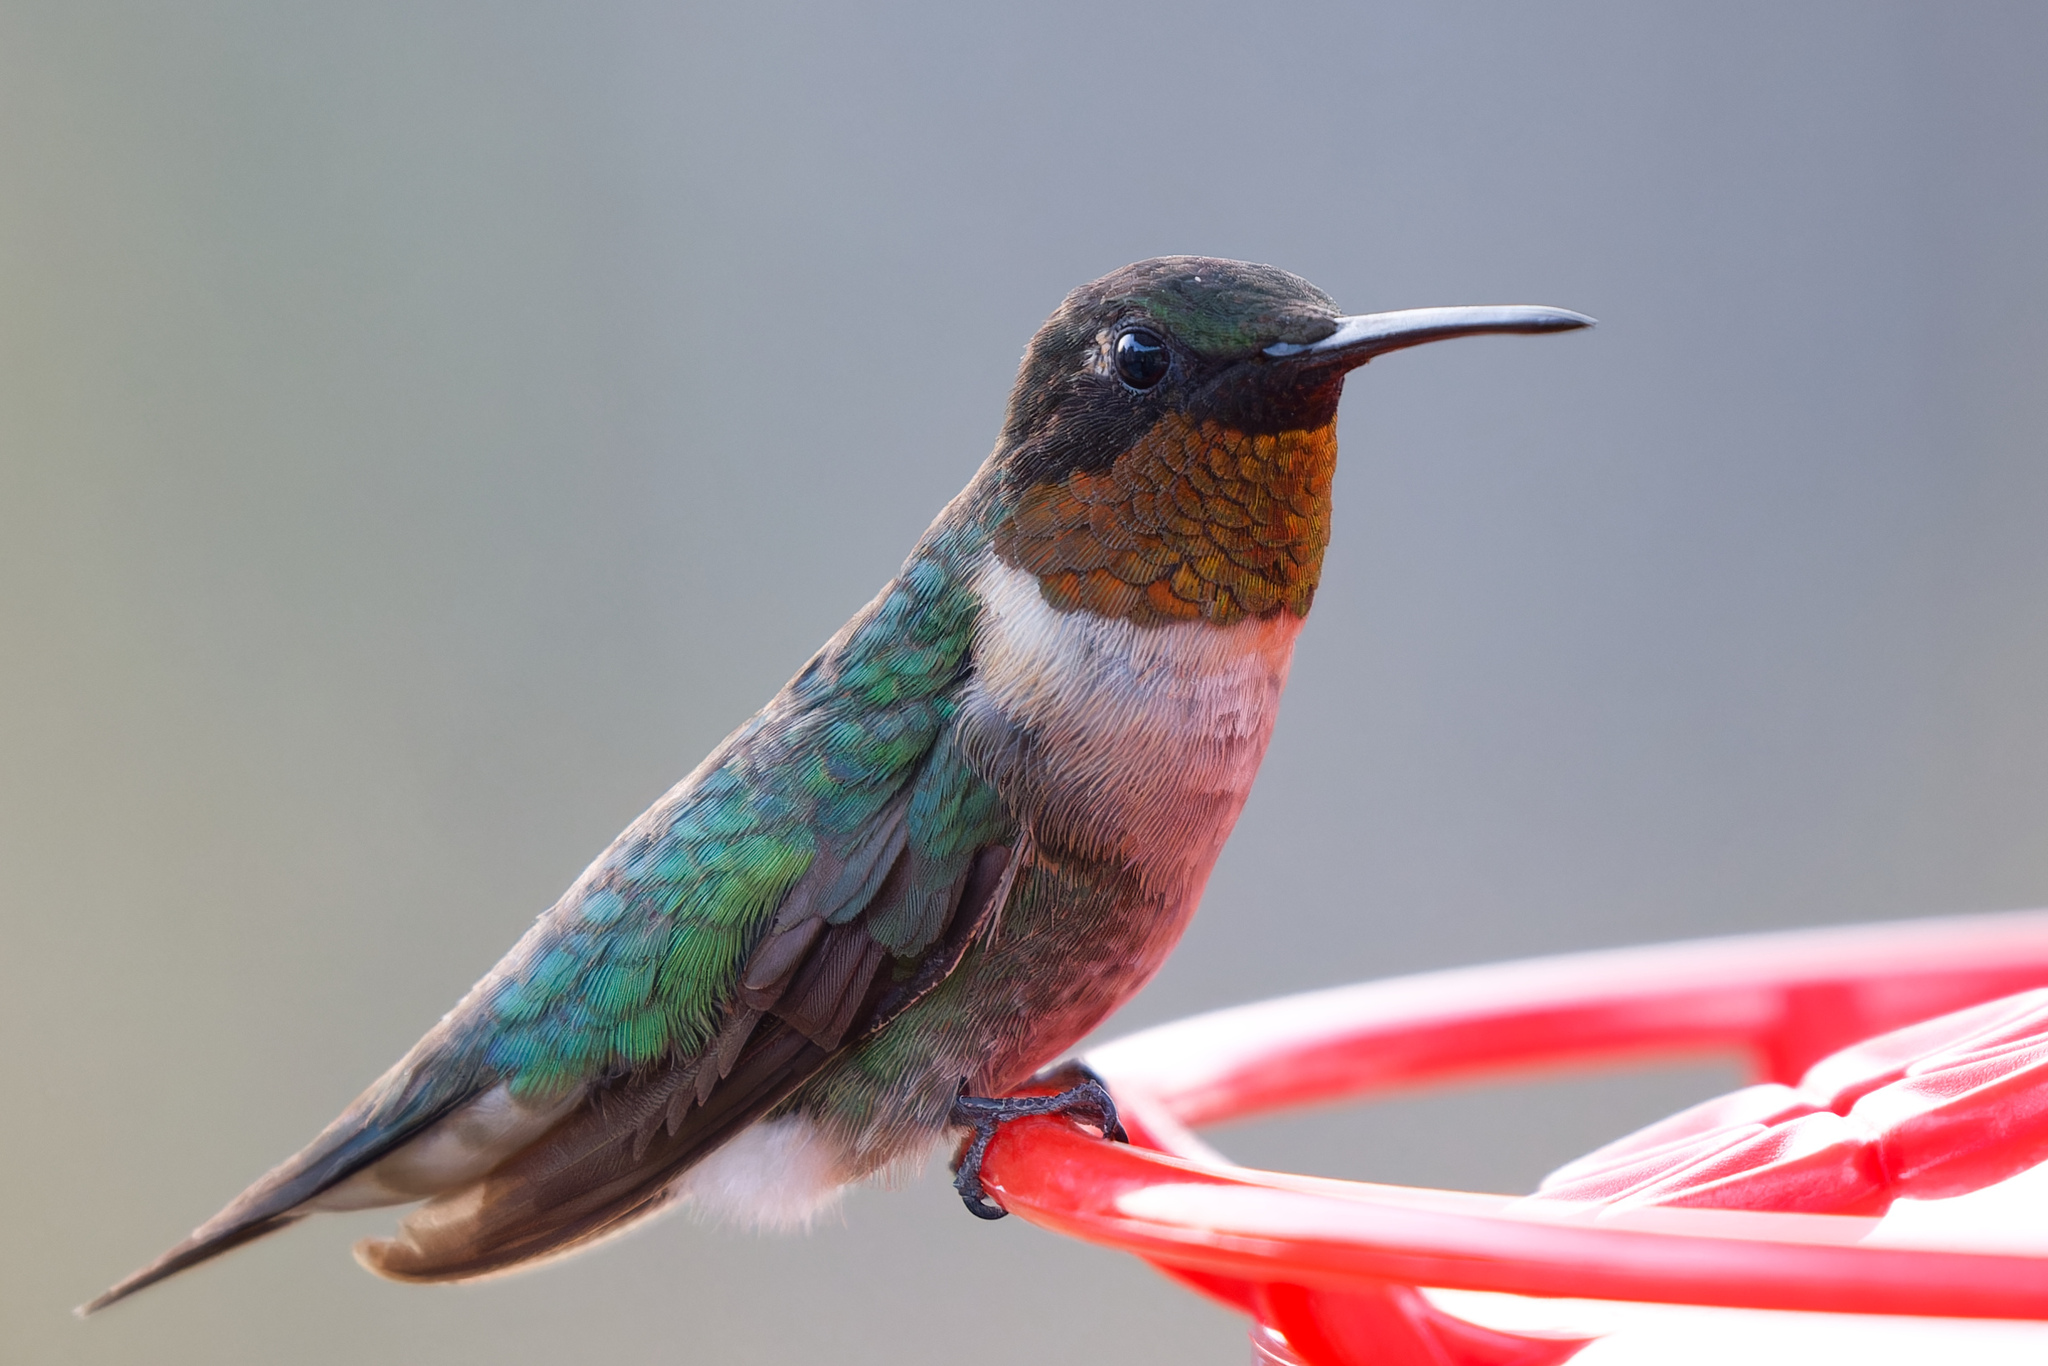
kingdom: Animalia
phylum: Chordata
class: Aves
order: Apodiformes
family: Trochilidae
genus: Archilochus
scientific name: Archilochus colubris
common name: Ruby-throated hummingbird
